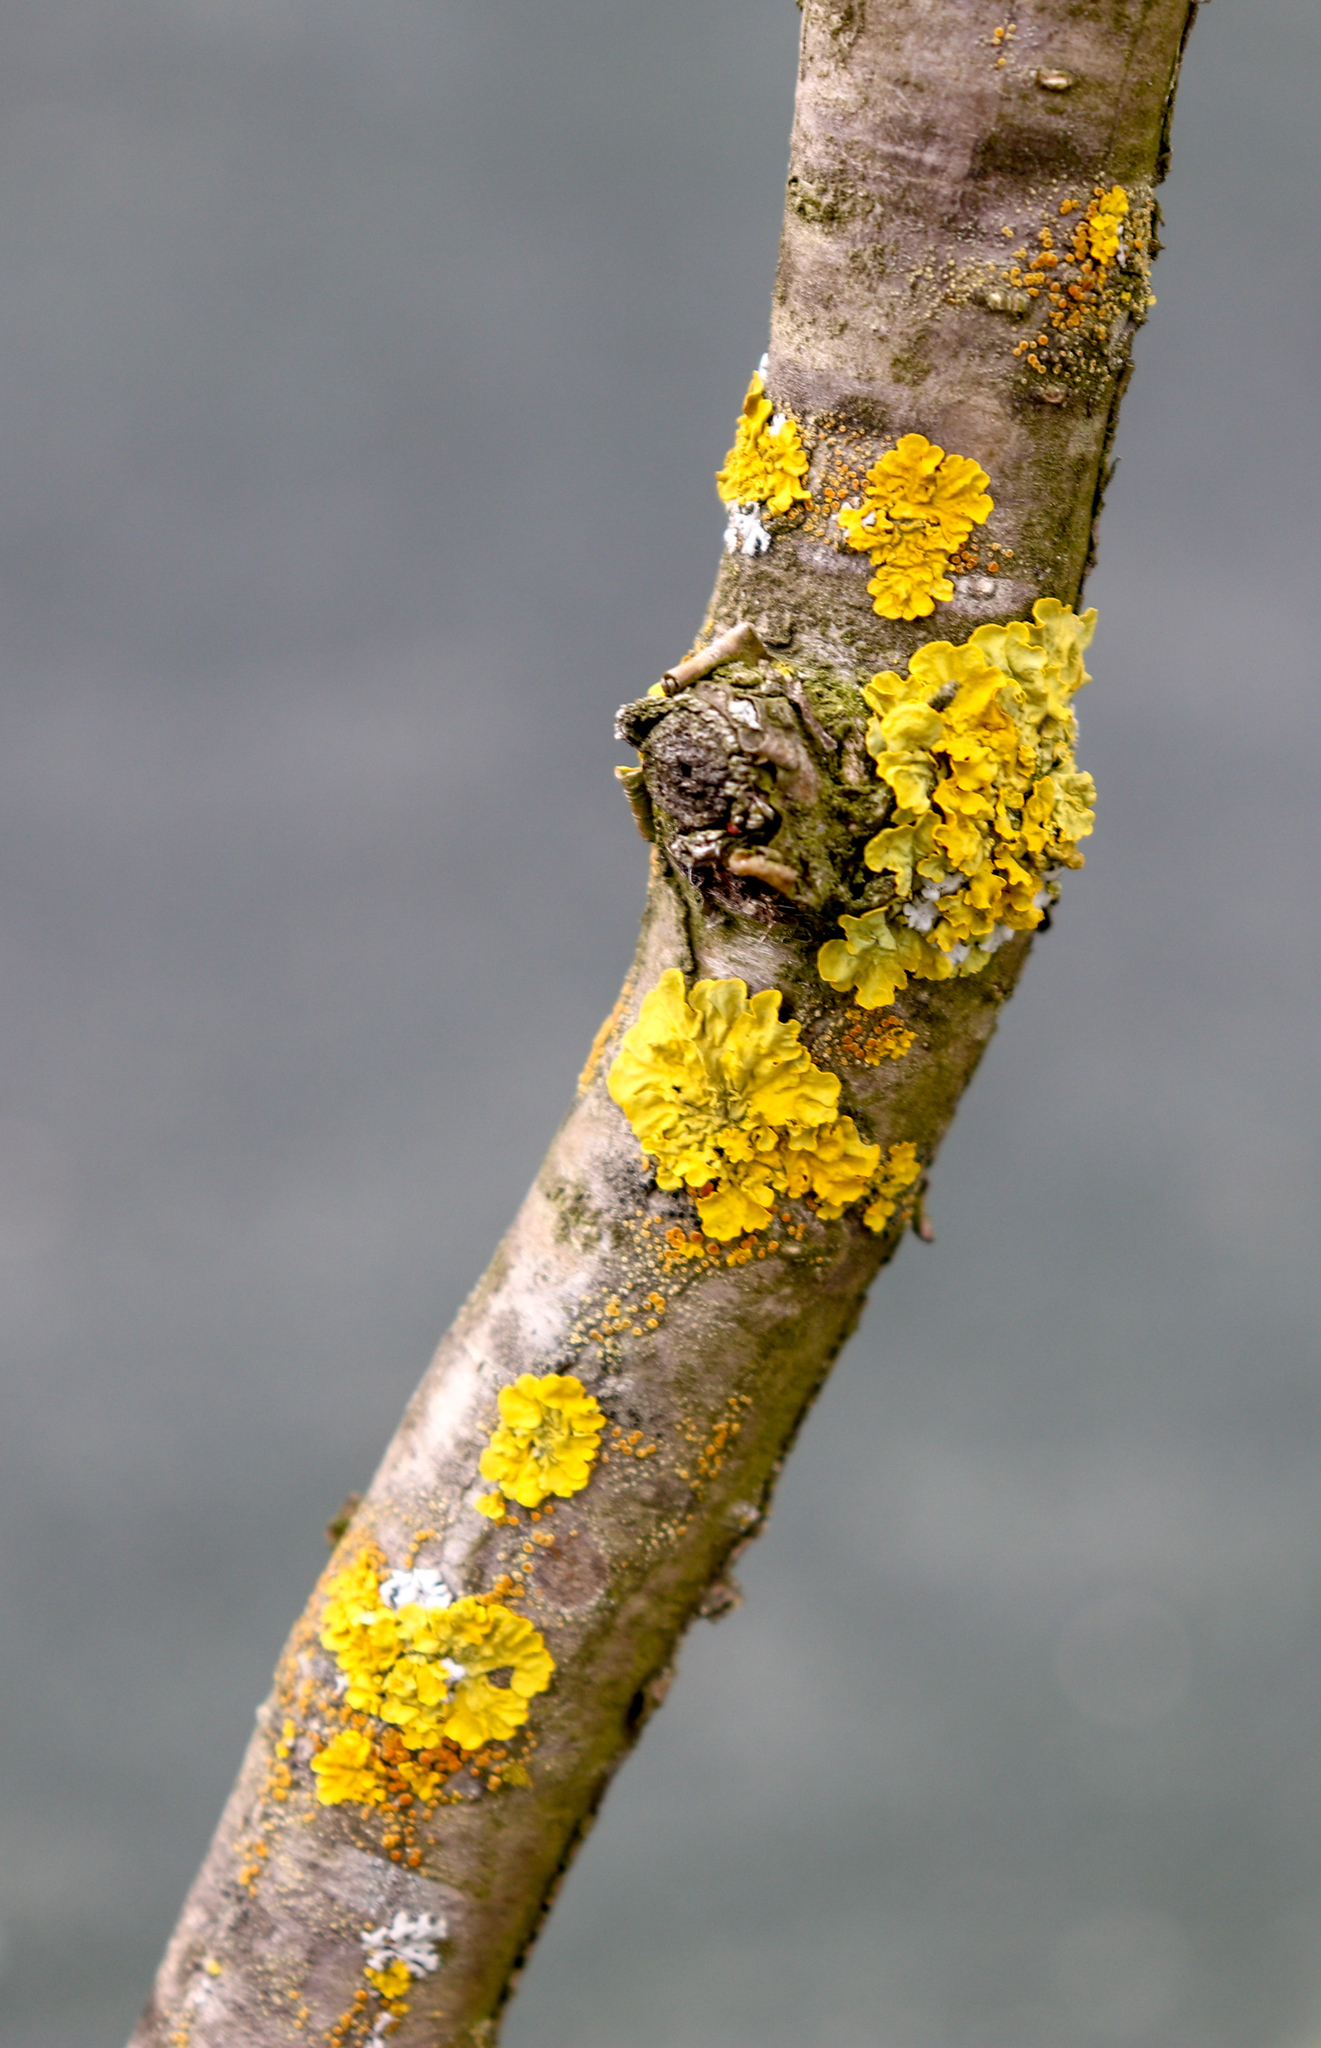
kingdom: Fungi
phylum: Ascomycota
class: Lecanoromycetes
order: Teloschistales
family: Teloschistaceae
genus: Xanthoria
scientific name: Xanthoria parietina
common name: Common orange lichen
